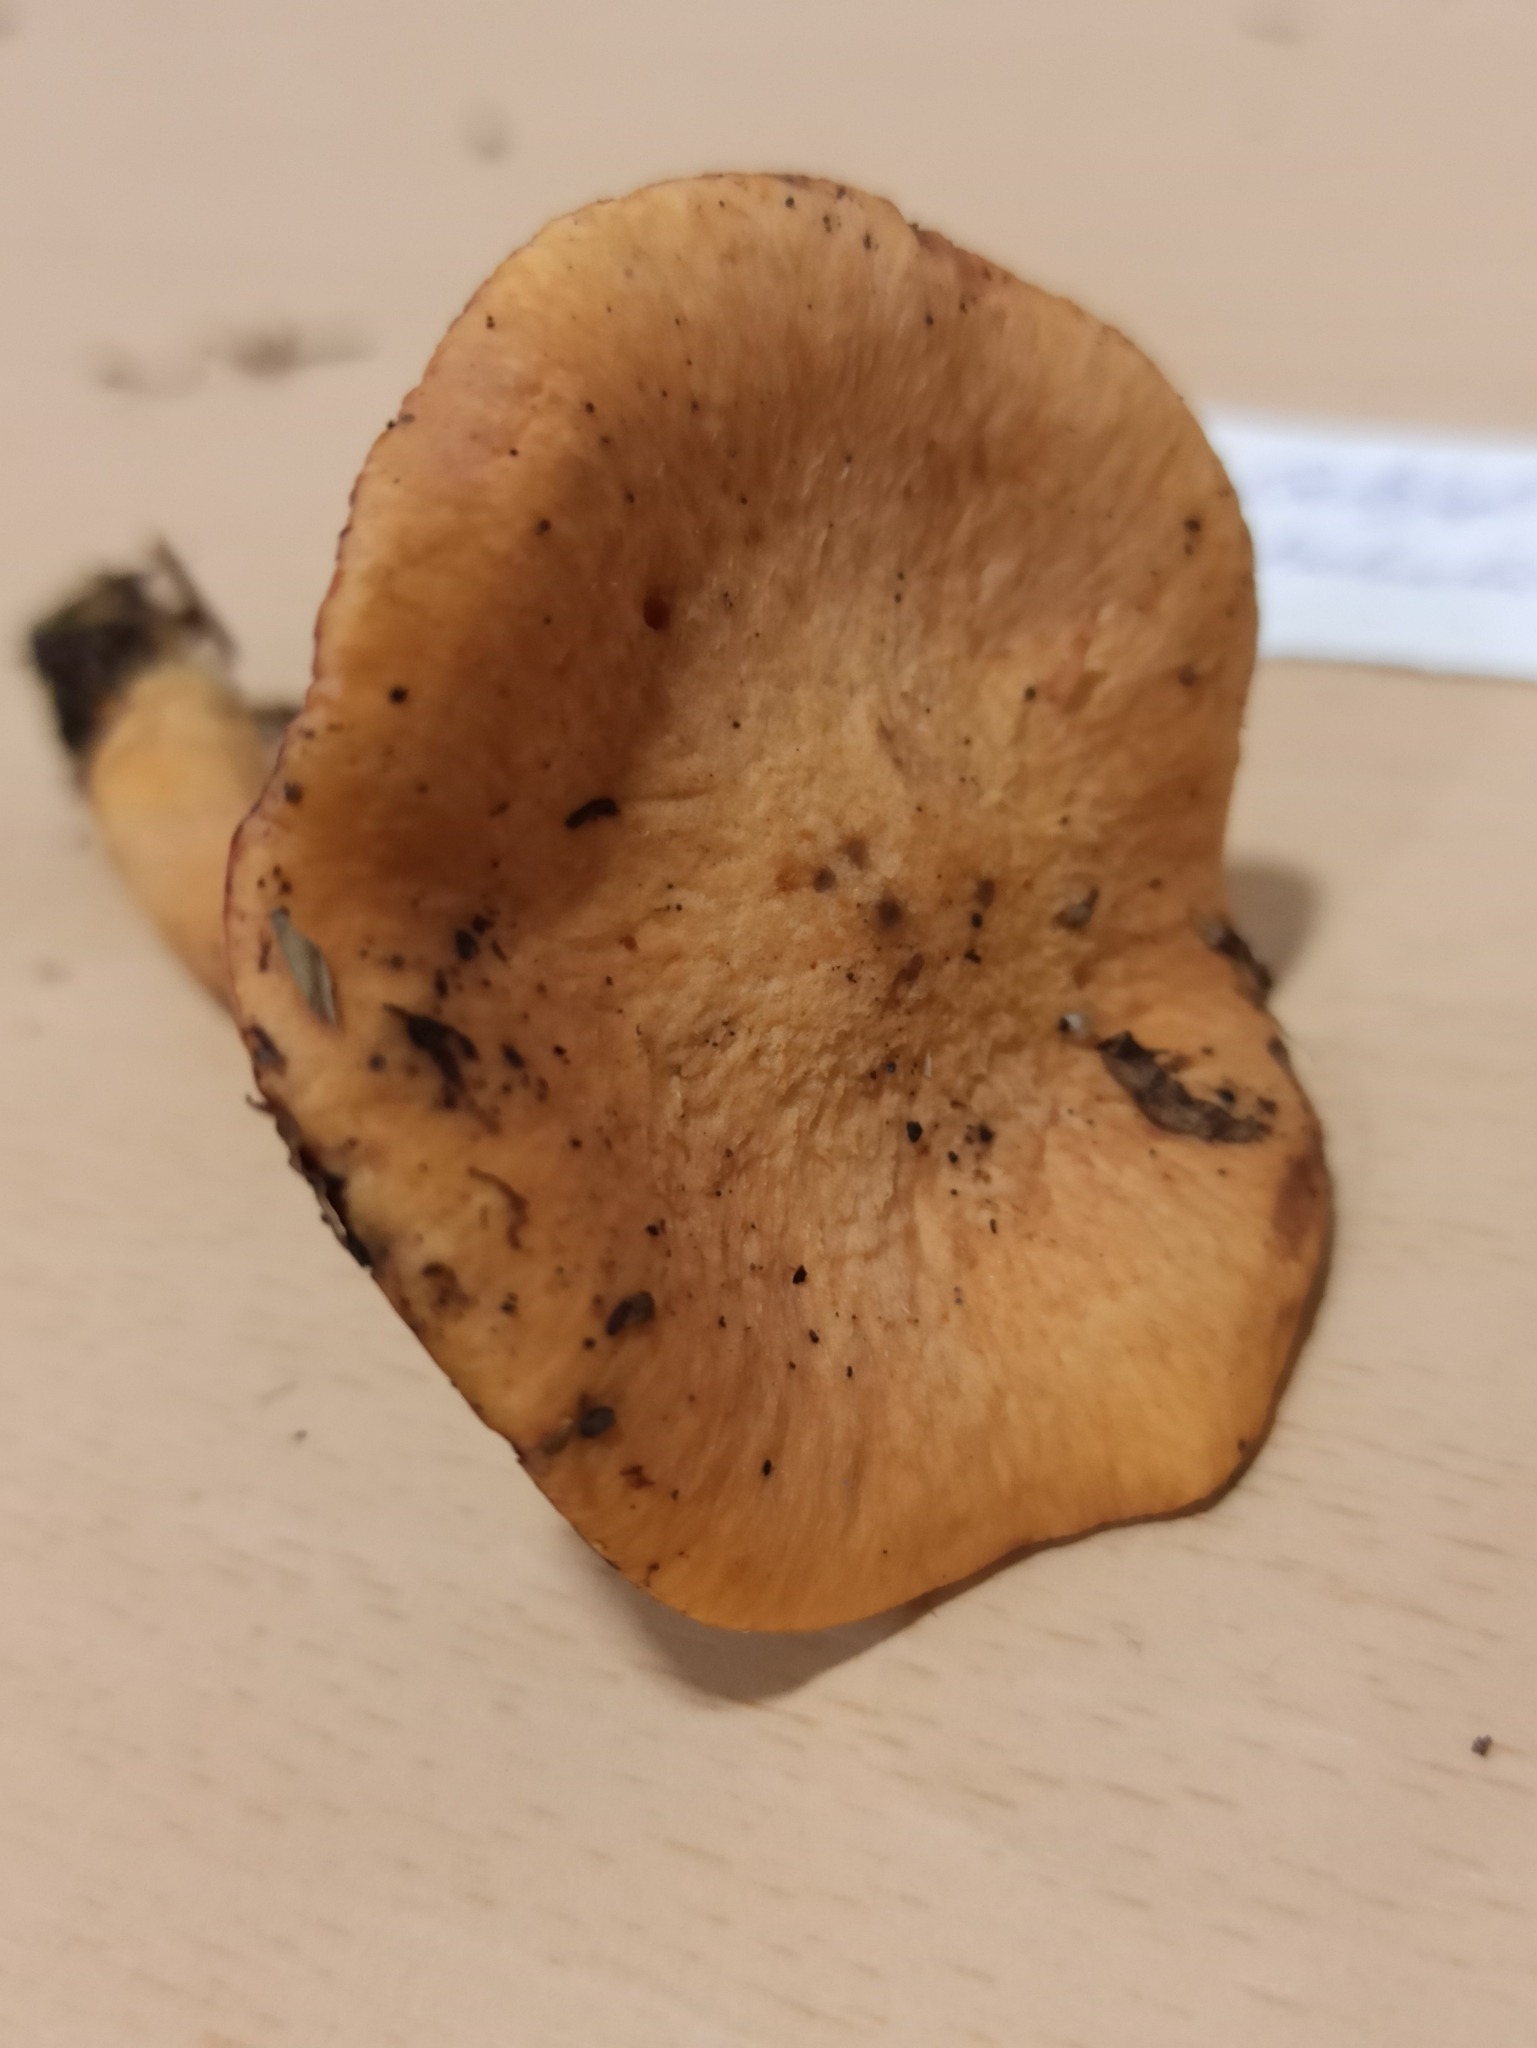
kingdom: Fungi
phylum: Basidiomycota
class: Agaricomycetes
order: Boletales
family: Gomphidiaceae
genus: Chroogomphus
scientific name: Chroogomphus helveticus
